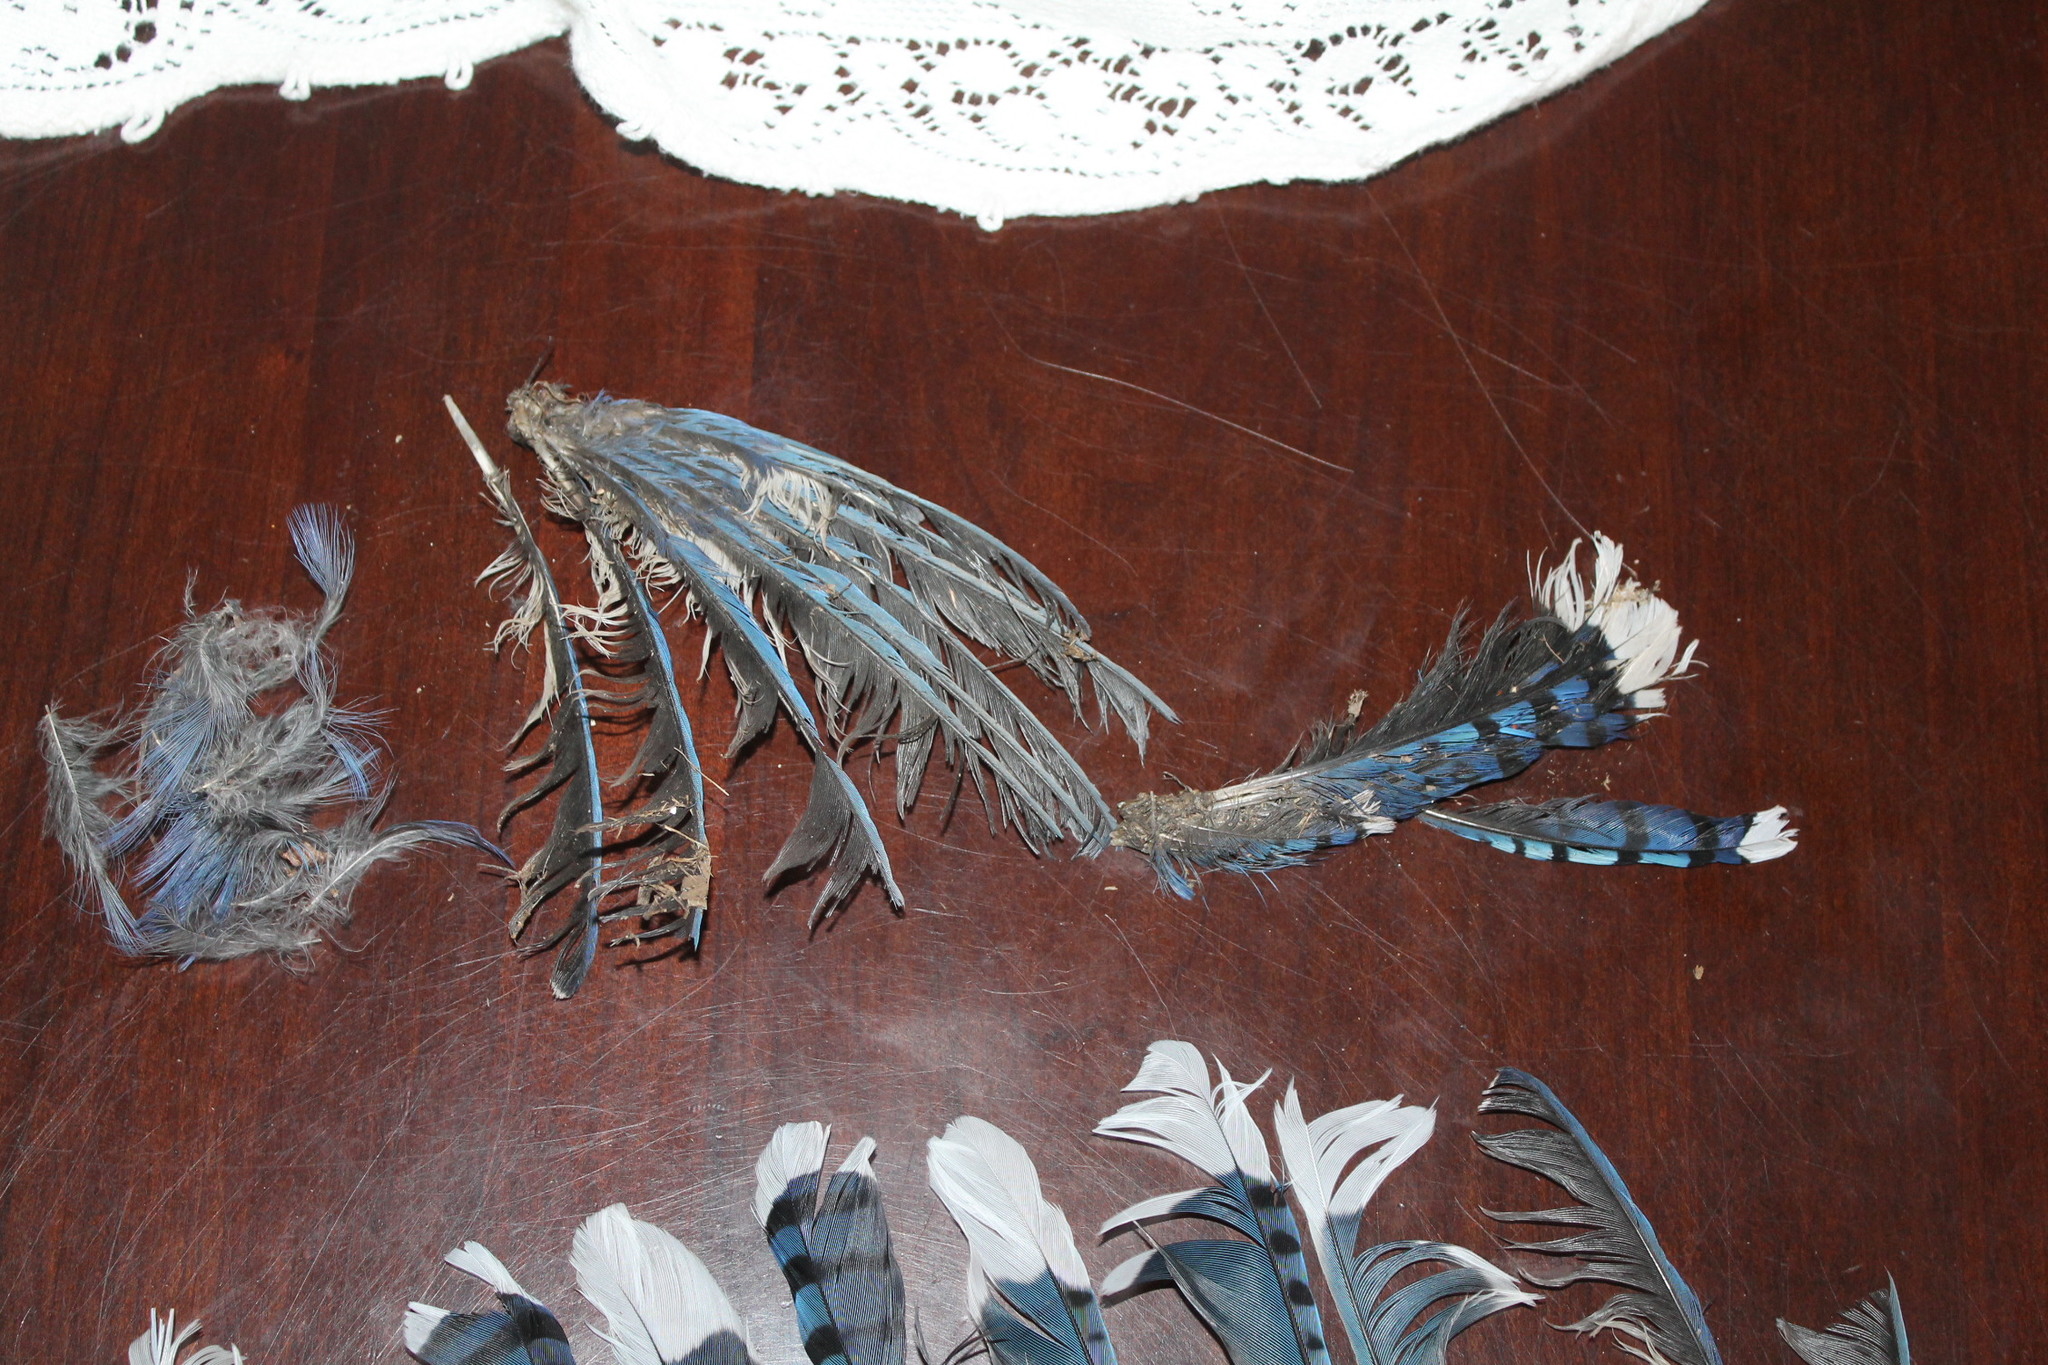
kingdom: Animalia
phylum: Chordata
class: Aves
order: Passeriformes
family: Corvidae
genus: Cyanocitta
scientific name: Cyanocitta cristata
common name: Blue jay
